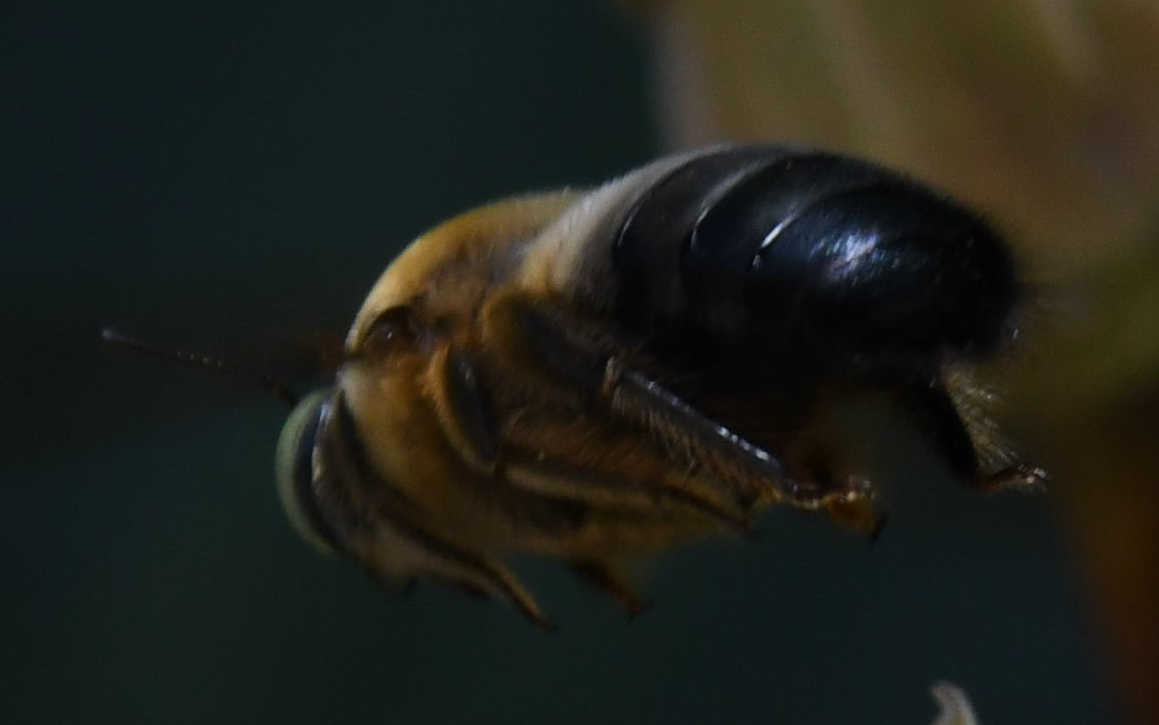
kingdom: Animalia
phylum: Arthropoda
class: Insecta
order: Hymenoptera
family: Apidae
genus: Xylocopa
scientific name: Xylocopa dejeanii
